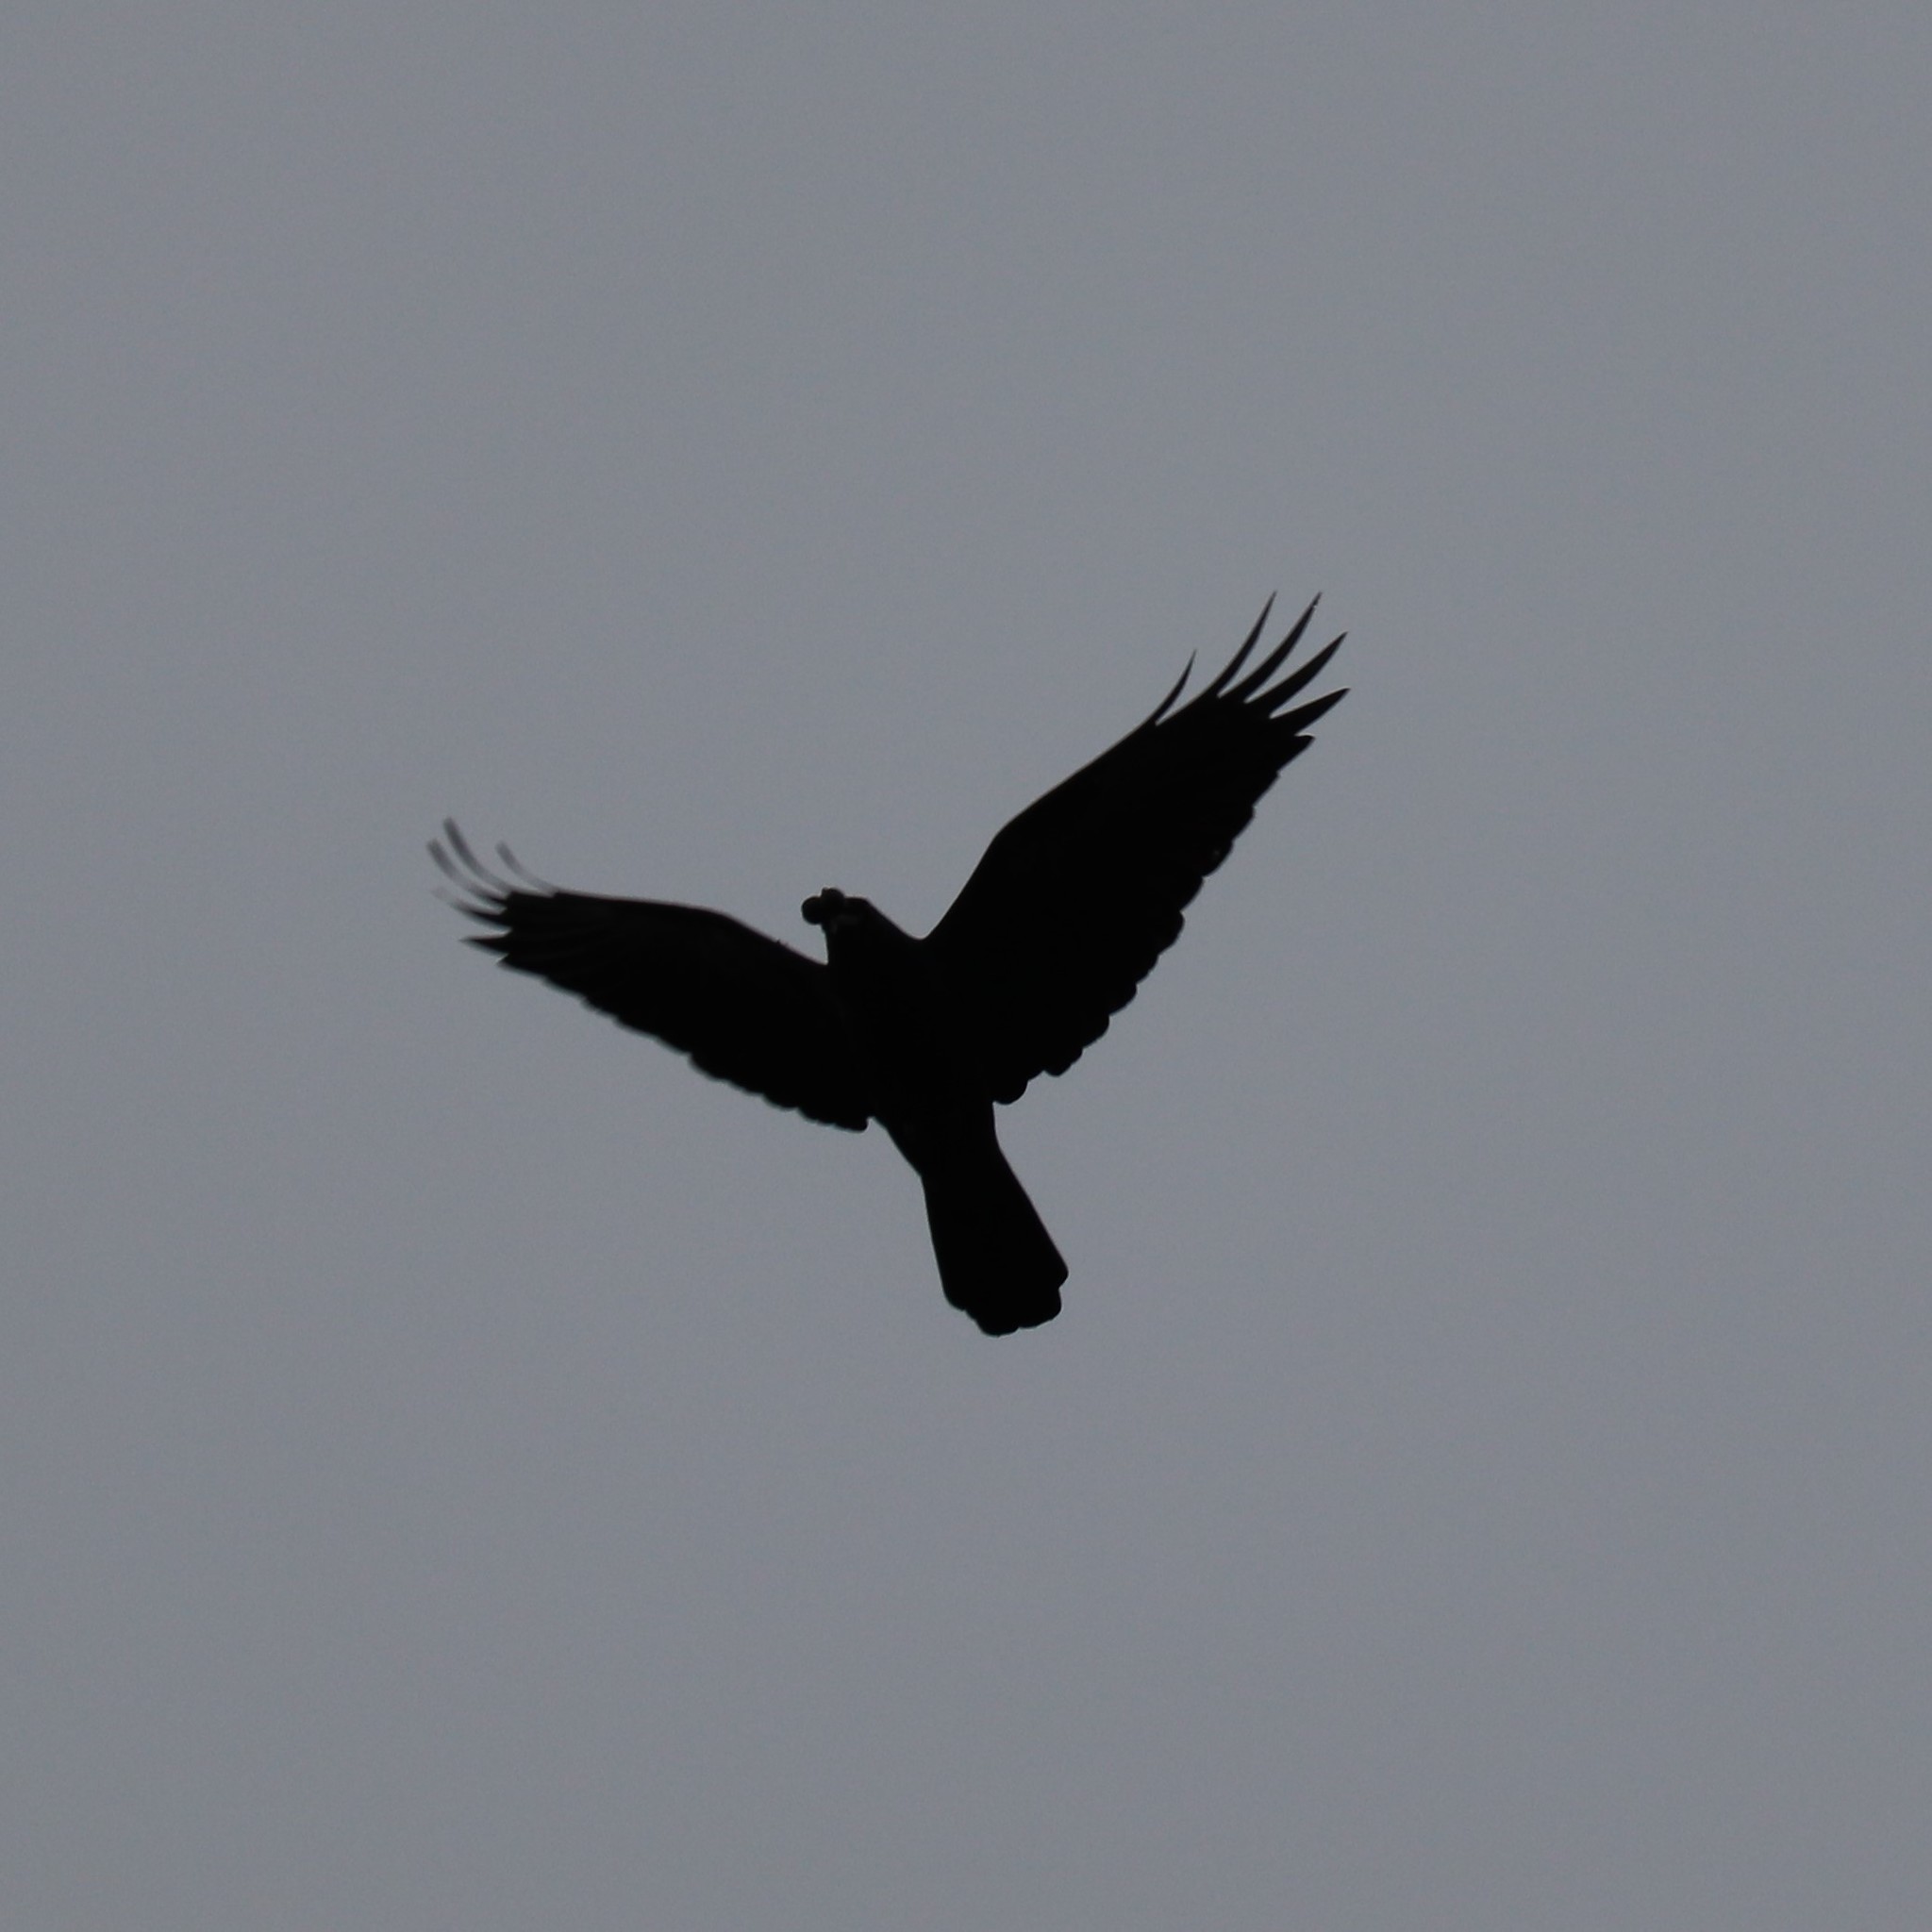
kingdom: Animalia
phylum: Chordata
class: Aves
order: Passeriformes
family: Corvidae
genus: Corvus
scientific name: Corvus ossifragus
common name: Fish crow
